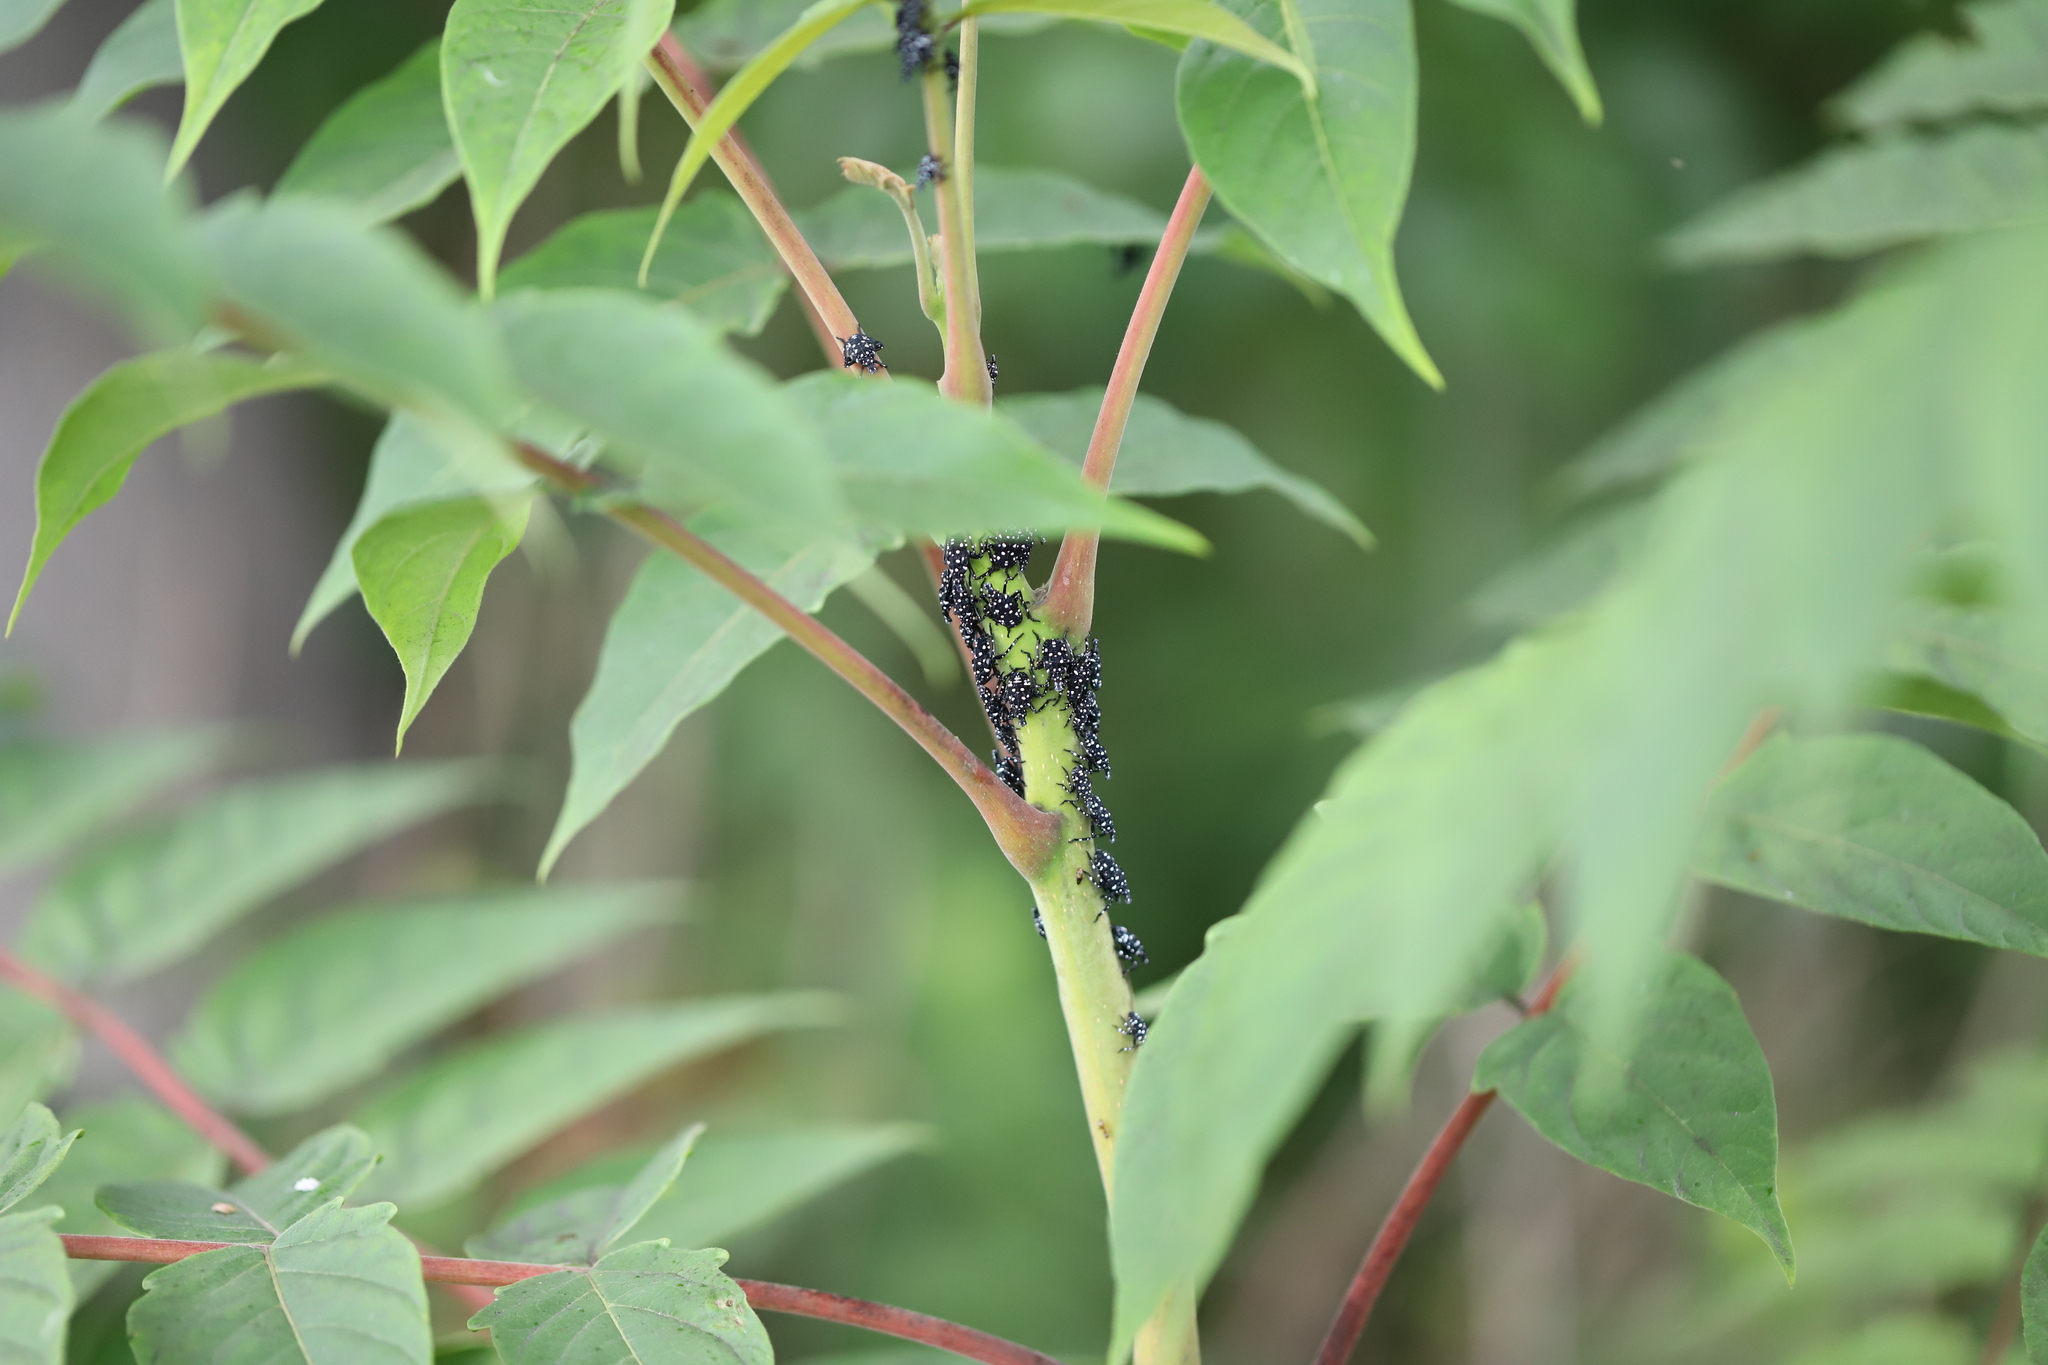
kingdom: Animalia
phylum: Arthropoda
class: Insecta
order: Hemiptera
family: Fulgoridae
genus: Lycorma
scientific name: Lycorma delicatula
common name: Spotted lanternfly
